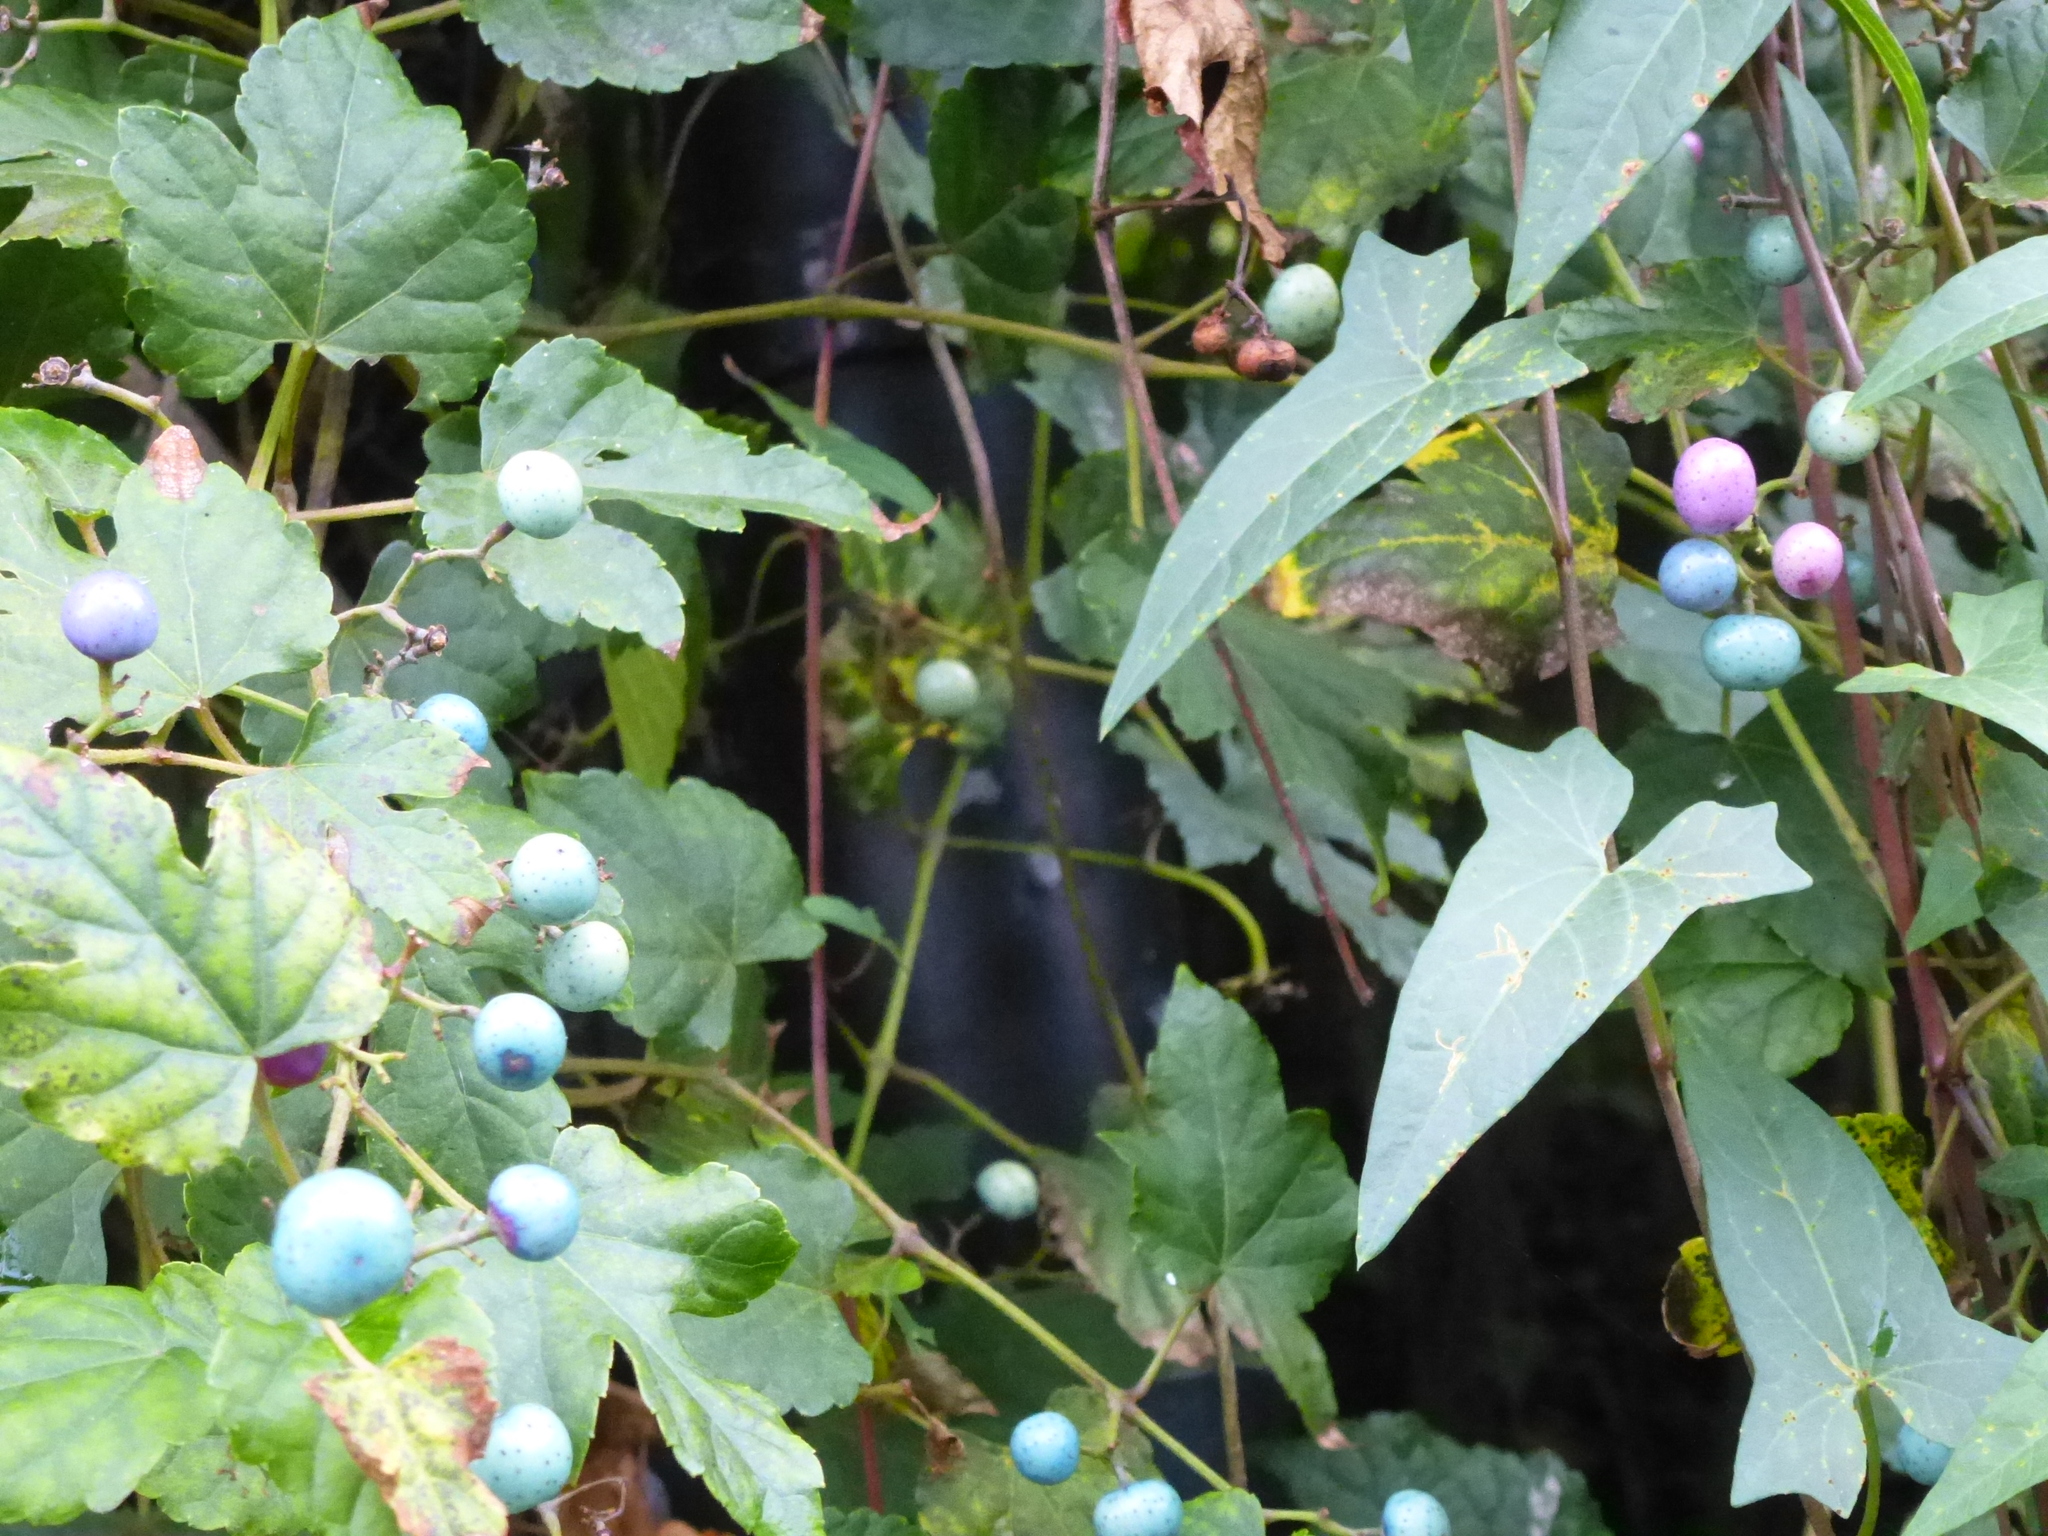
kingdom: Plantae
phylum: Tracheophyta
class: Magnoliopsida
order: Vitales
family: Vitaceae
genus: Ampelopsis
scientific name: Ampelopsis glandulosa
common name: Amur peppervine
